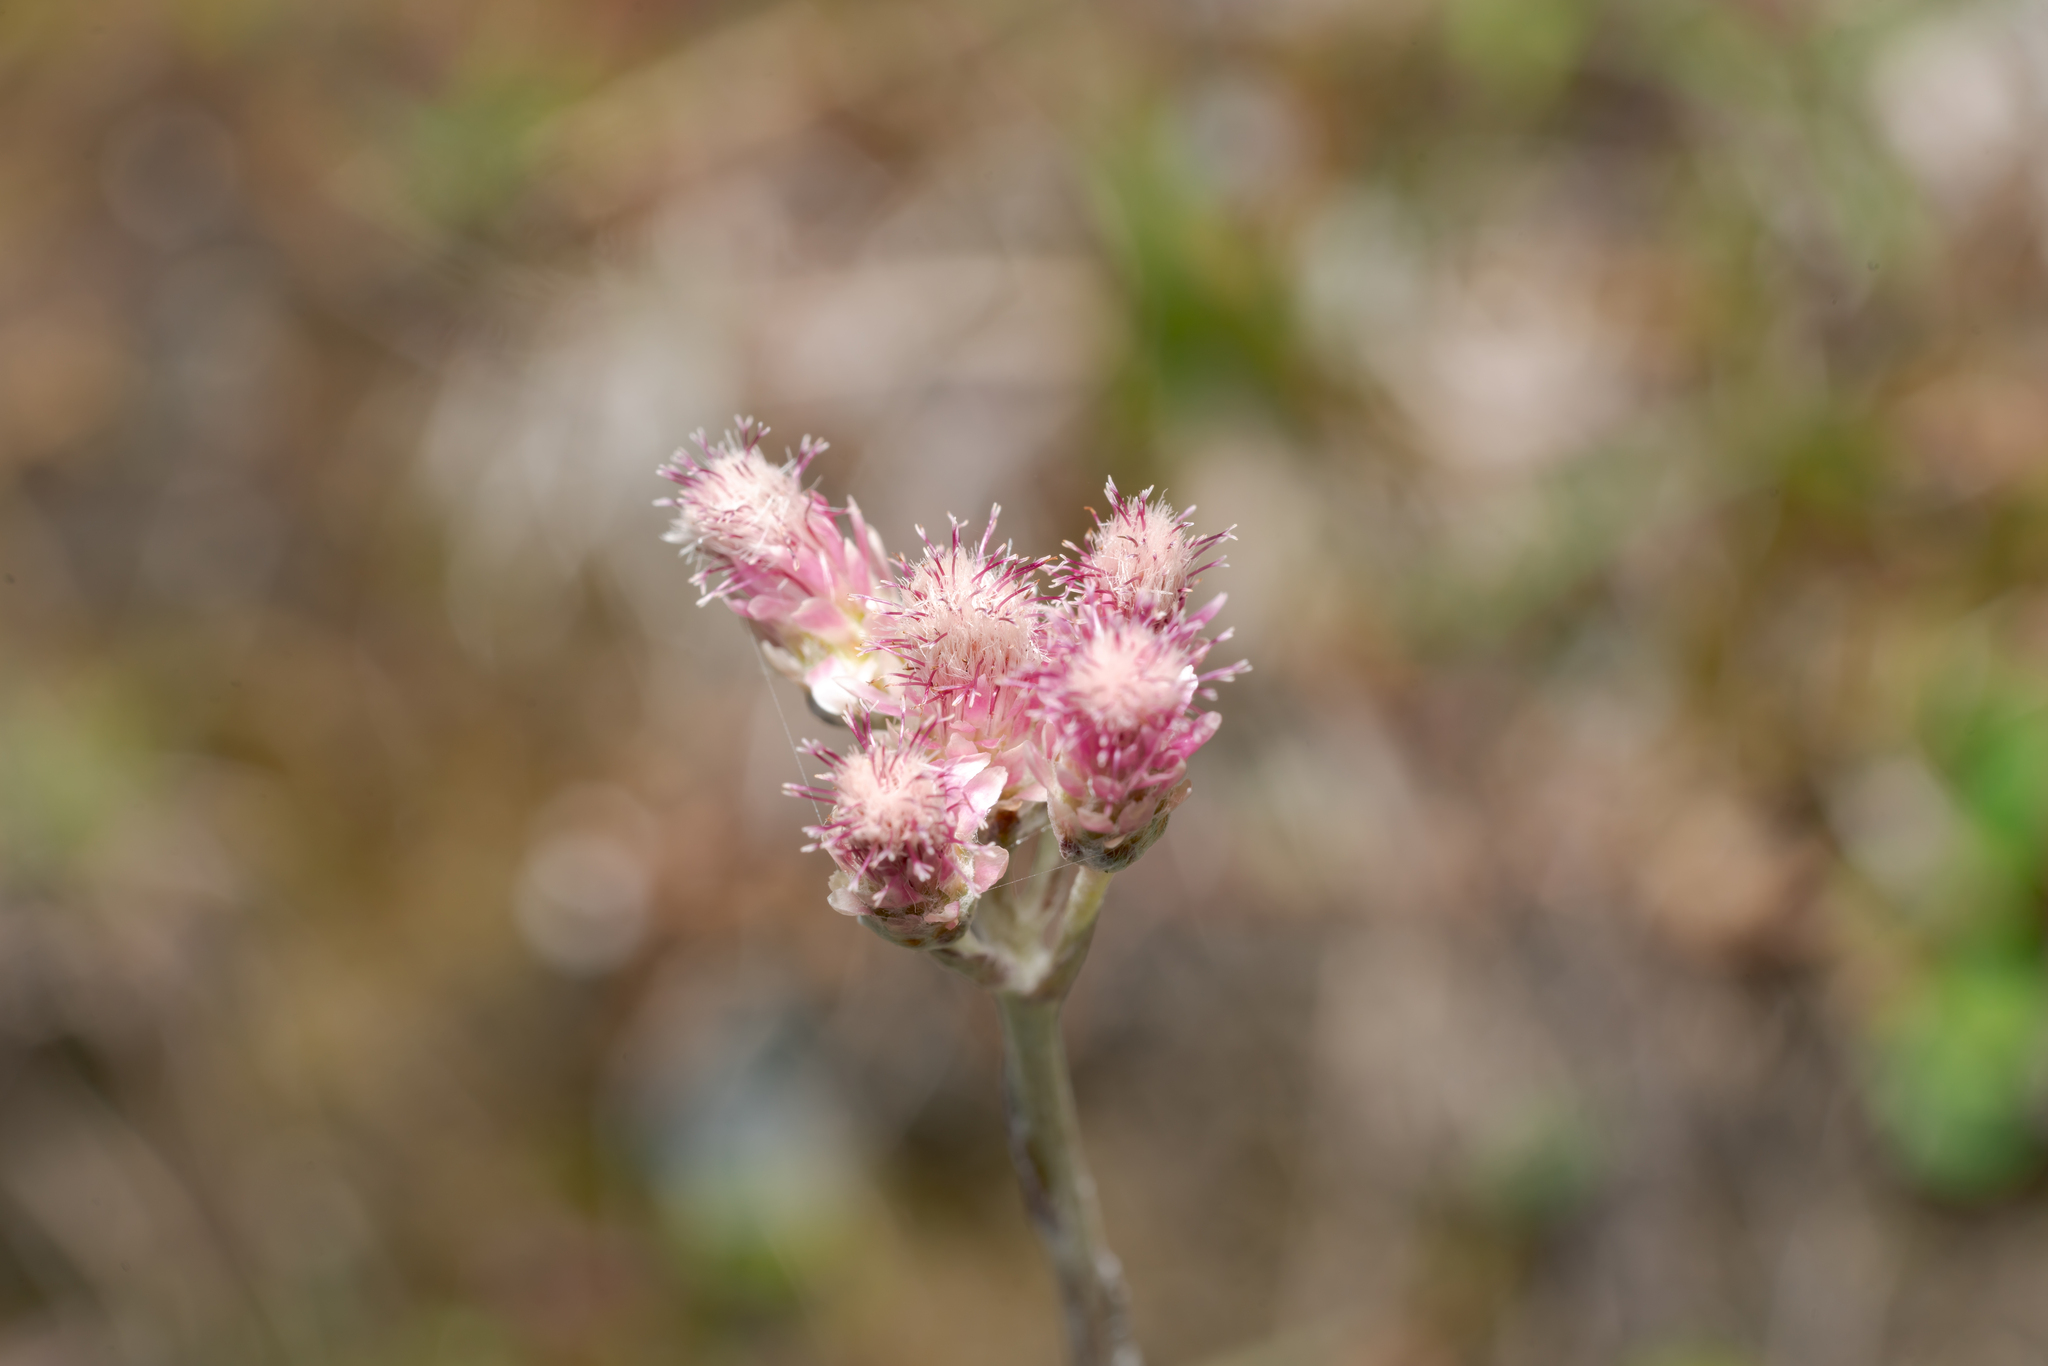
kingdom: Plantae
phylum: Tracheophyta
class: Magnoliopsida
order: Asterales
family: Asteraceae
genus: Antennaria
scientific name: Antennaria dioica
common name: Mountain everlasting
